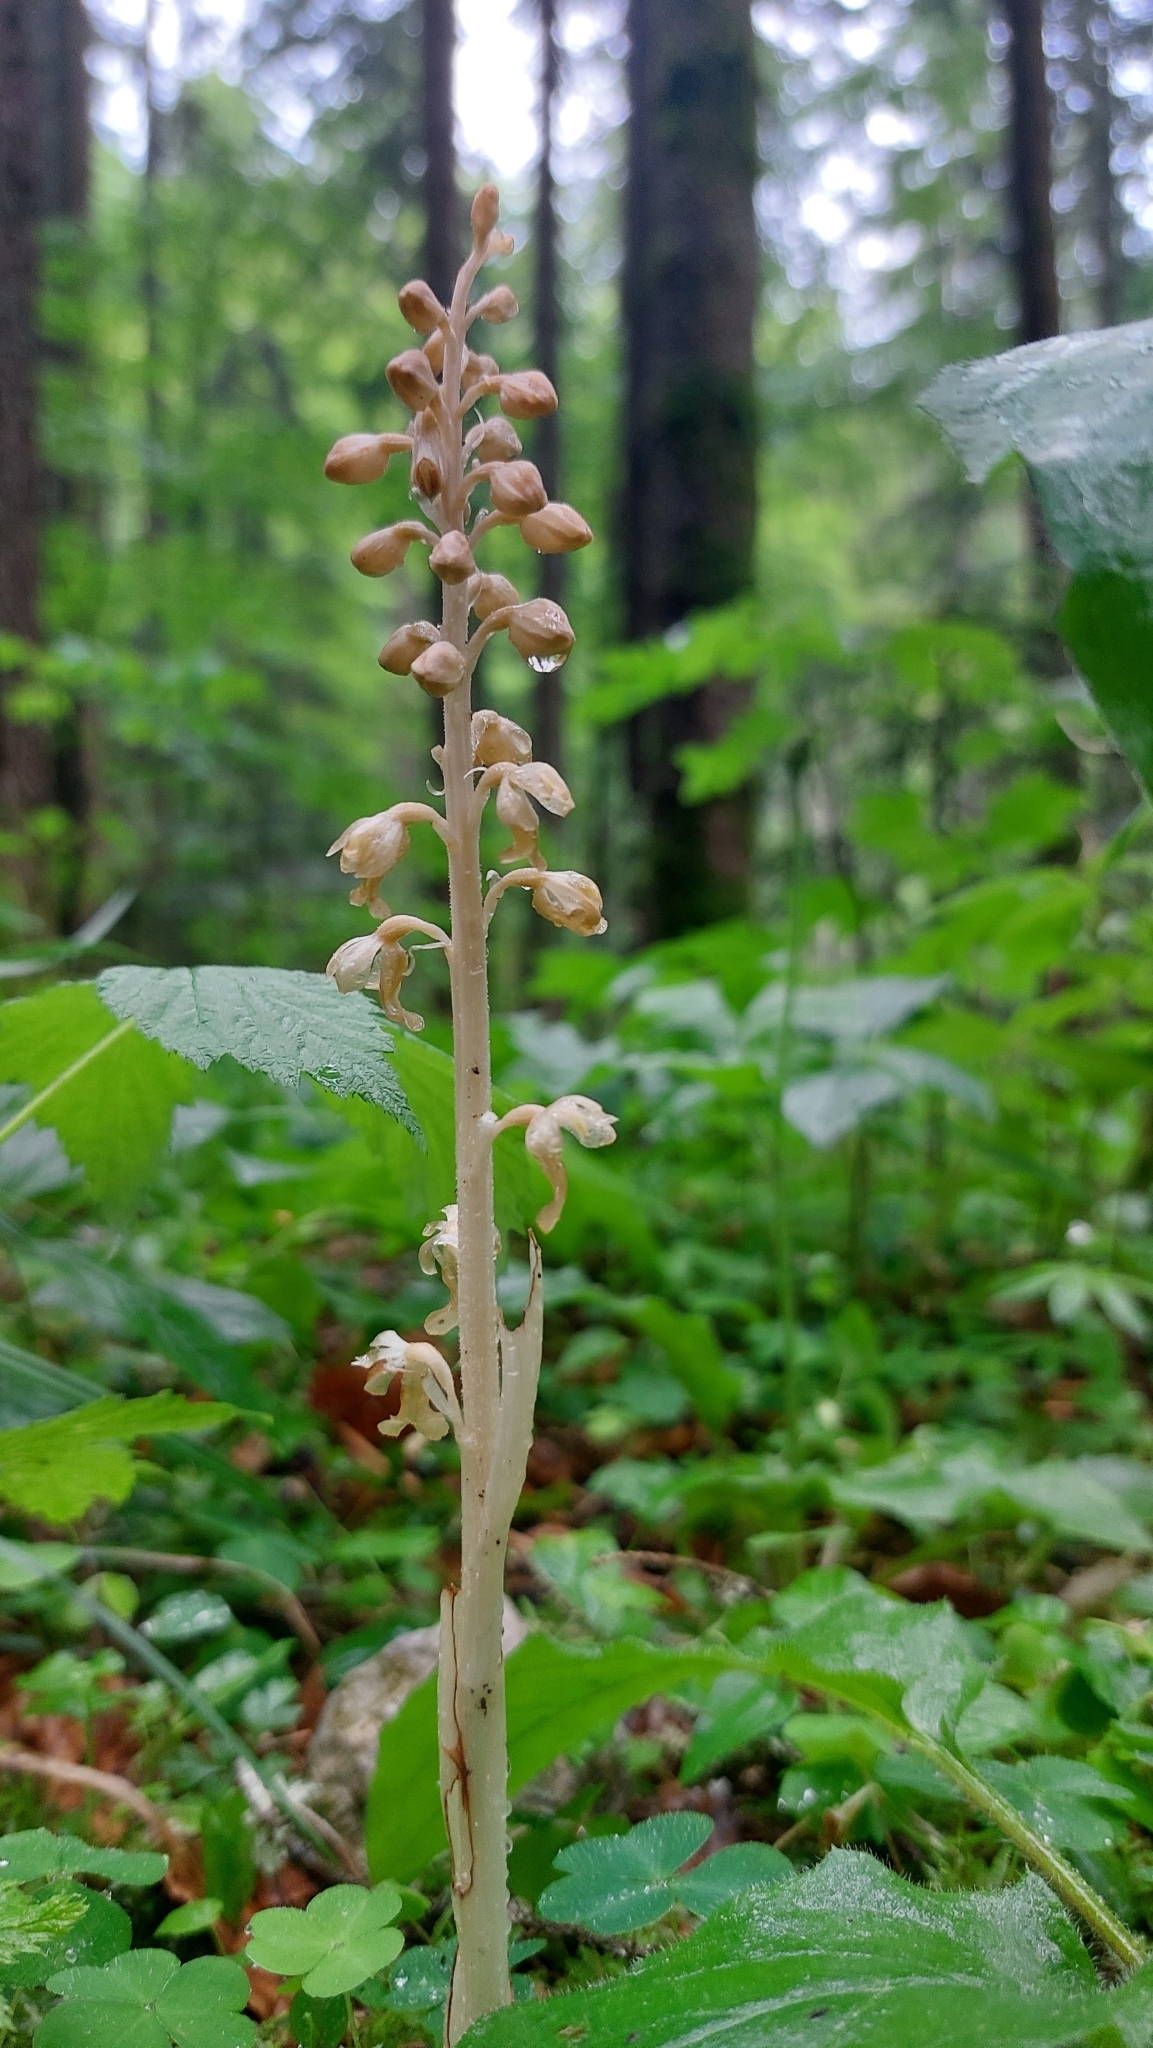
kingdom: Plantae
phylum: Tracheophyta
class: Liliopsida
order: Asparagales
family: Orchidaceae
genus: Neottia
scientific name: Neottia nidus-avis
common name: Bird's-nest orchid
